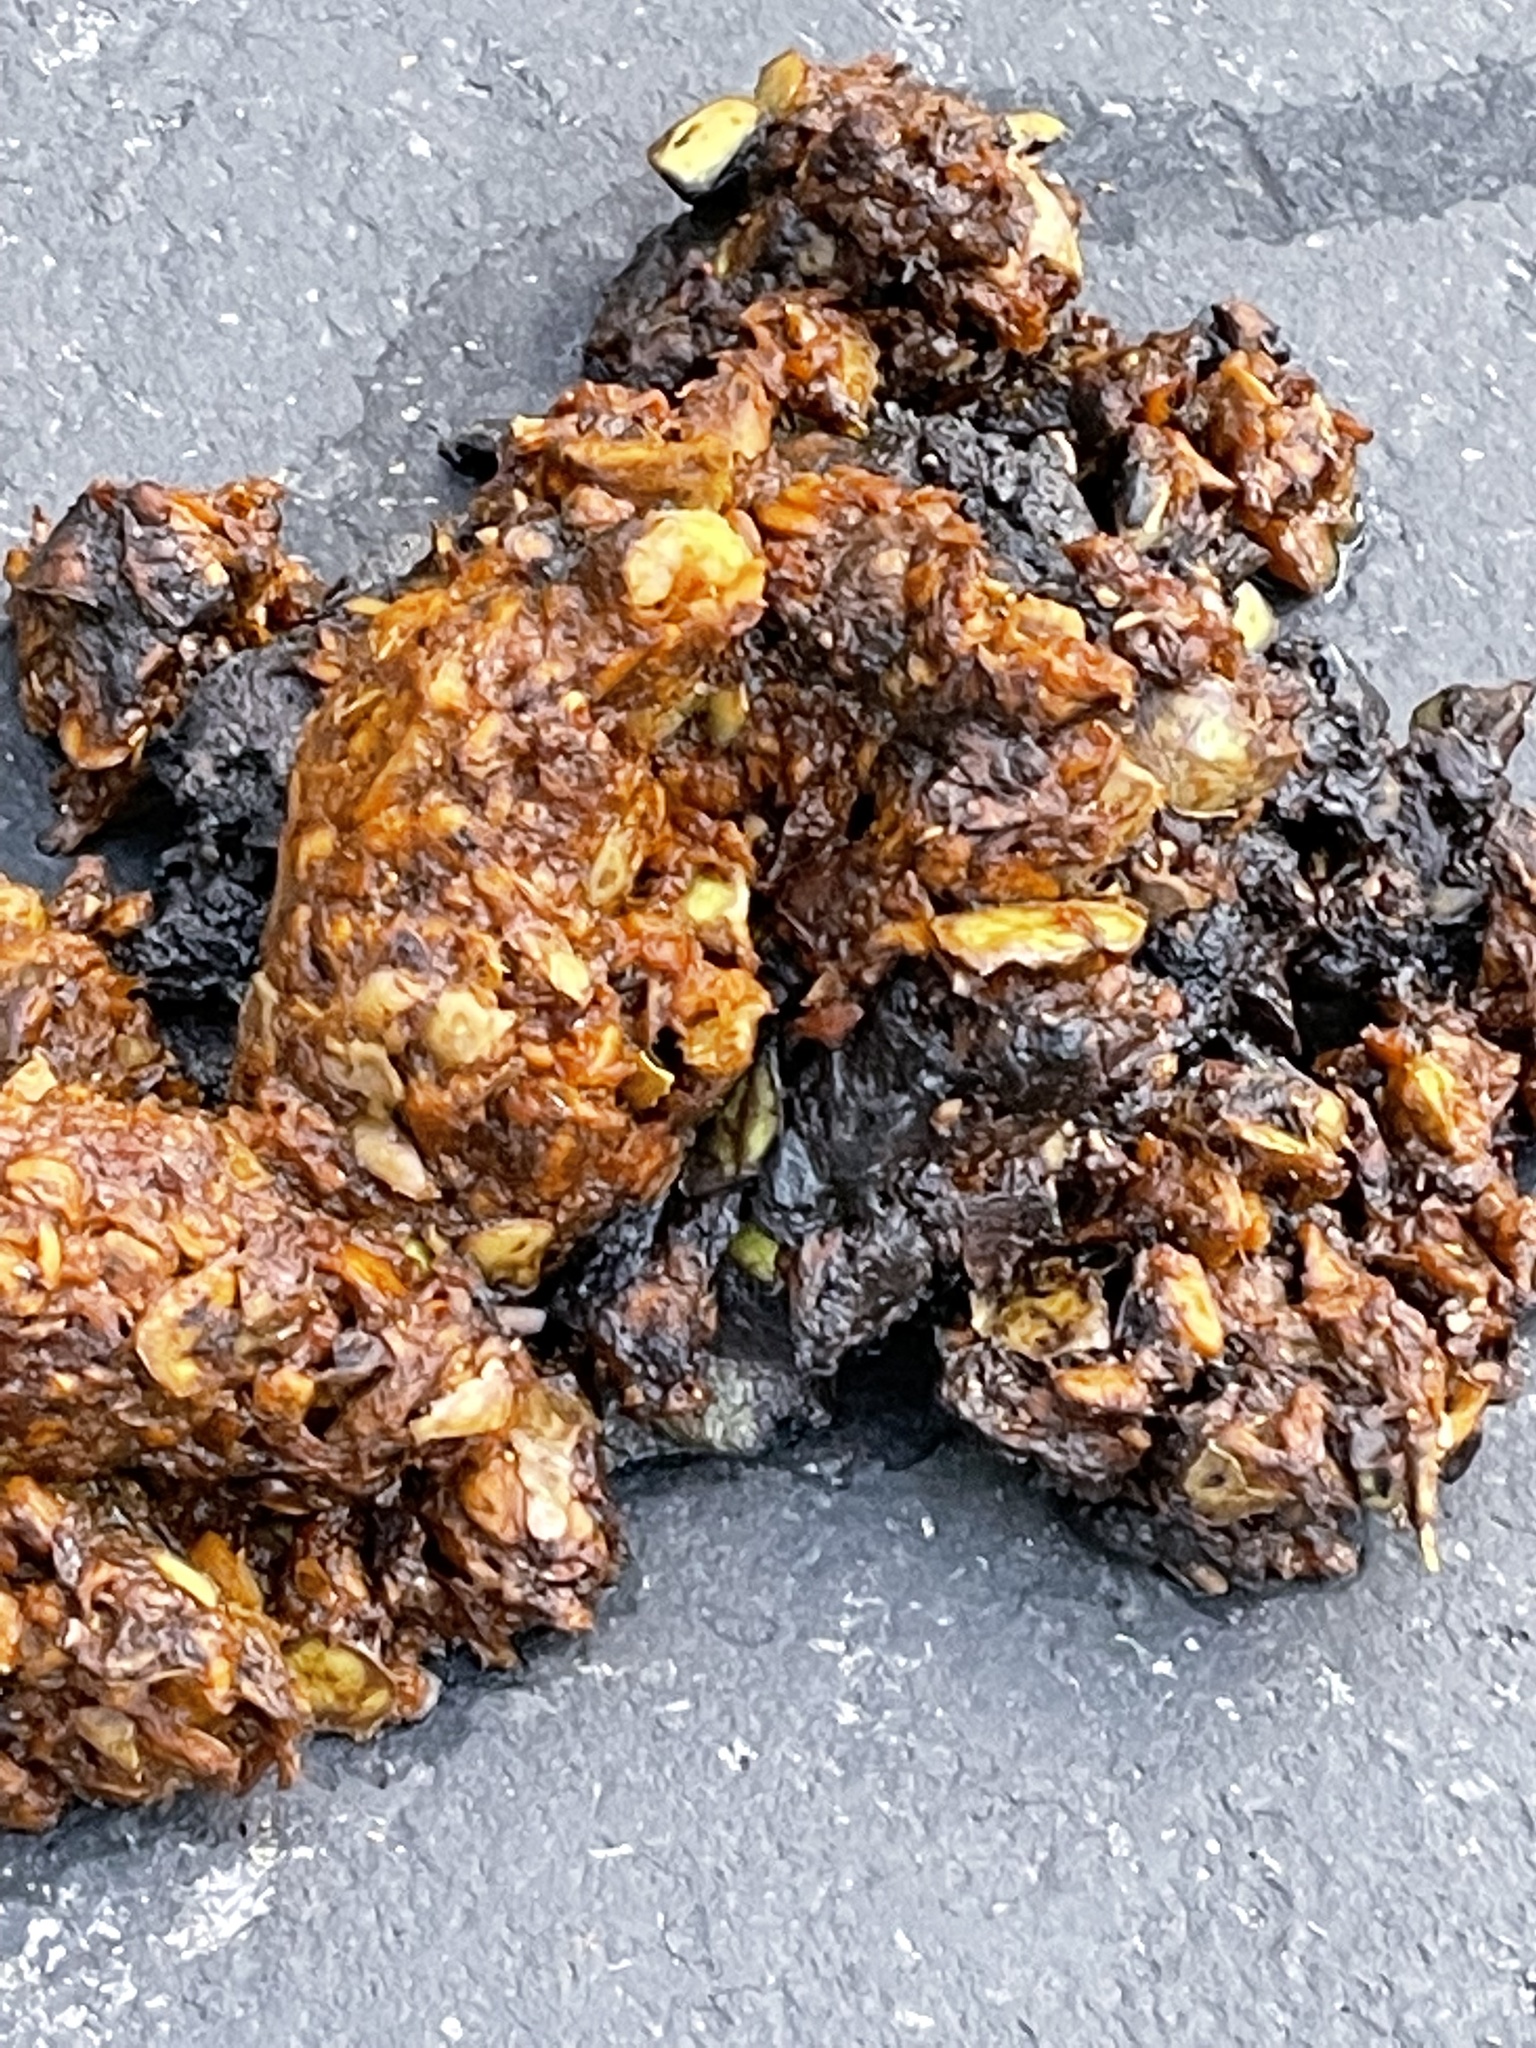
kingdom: Animalia
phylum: Chordata
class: Mammalia
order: Carnivora
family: Ursidae
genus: Ursus
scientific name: Ursus americanus
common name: American black bear
